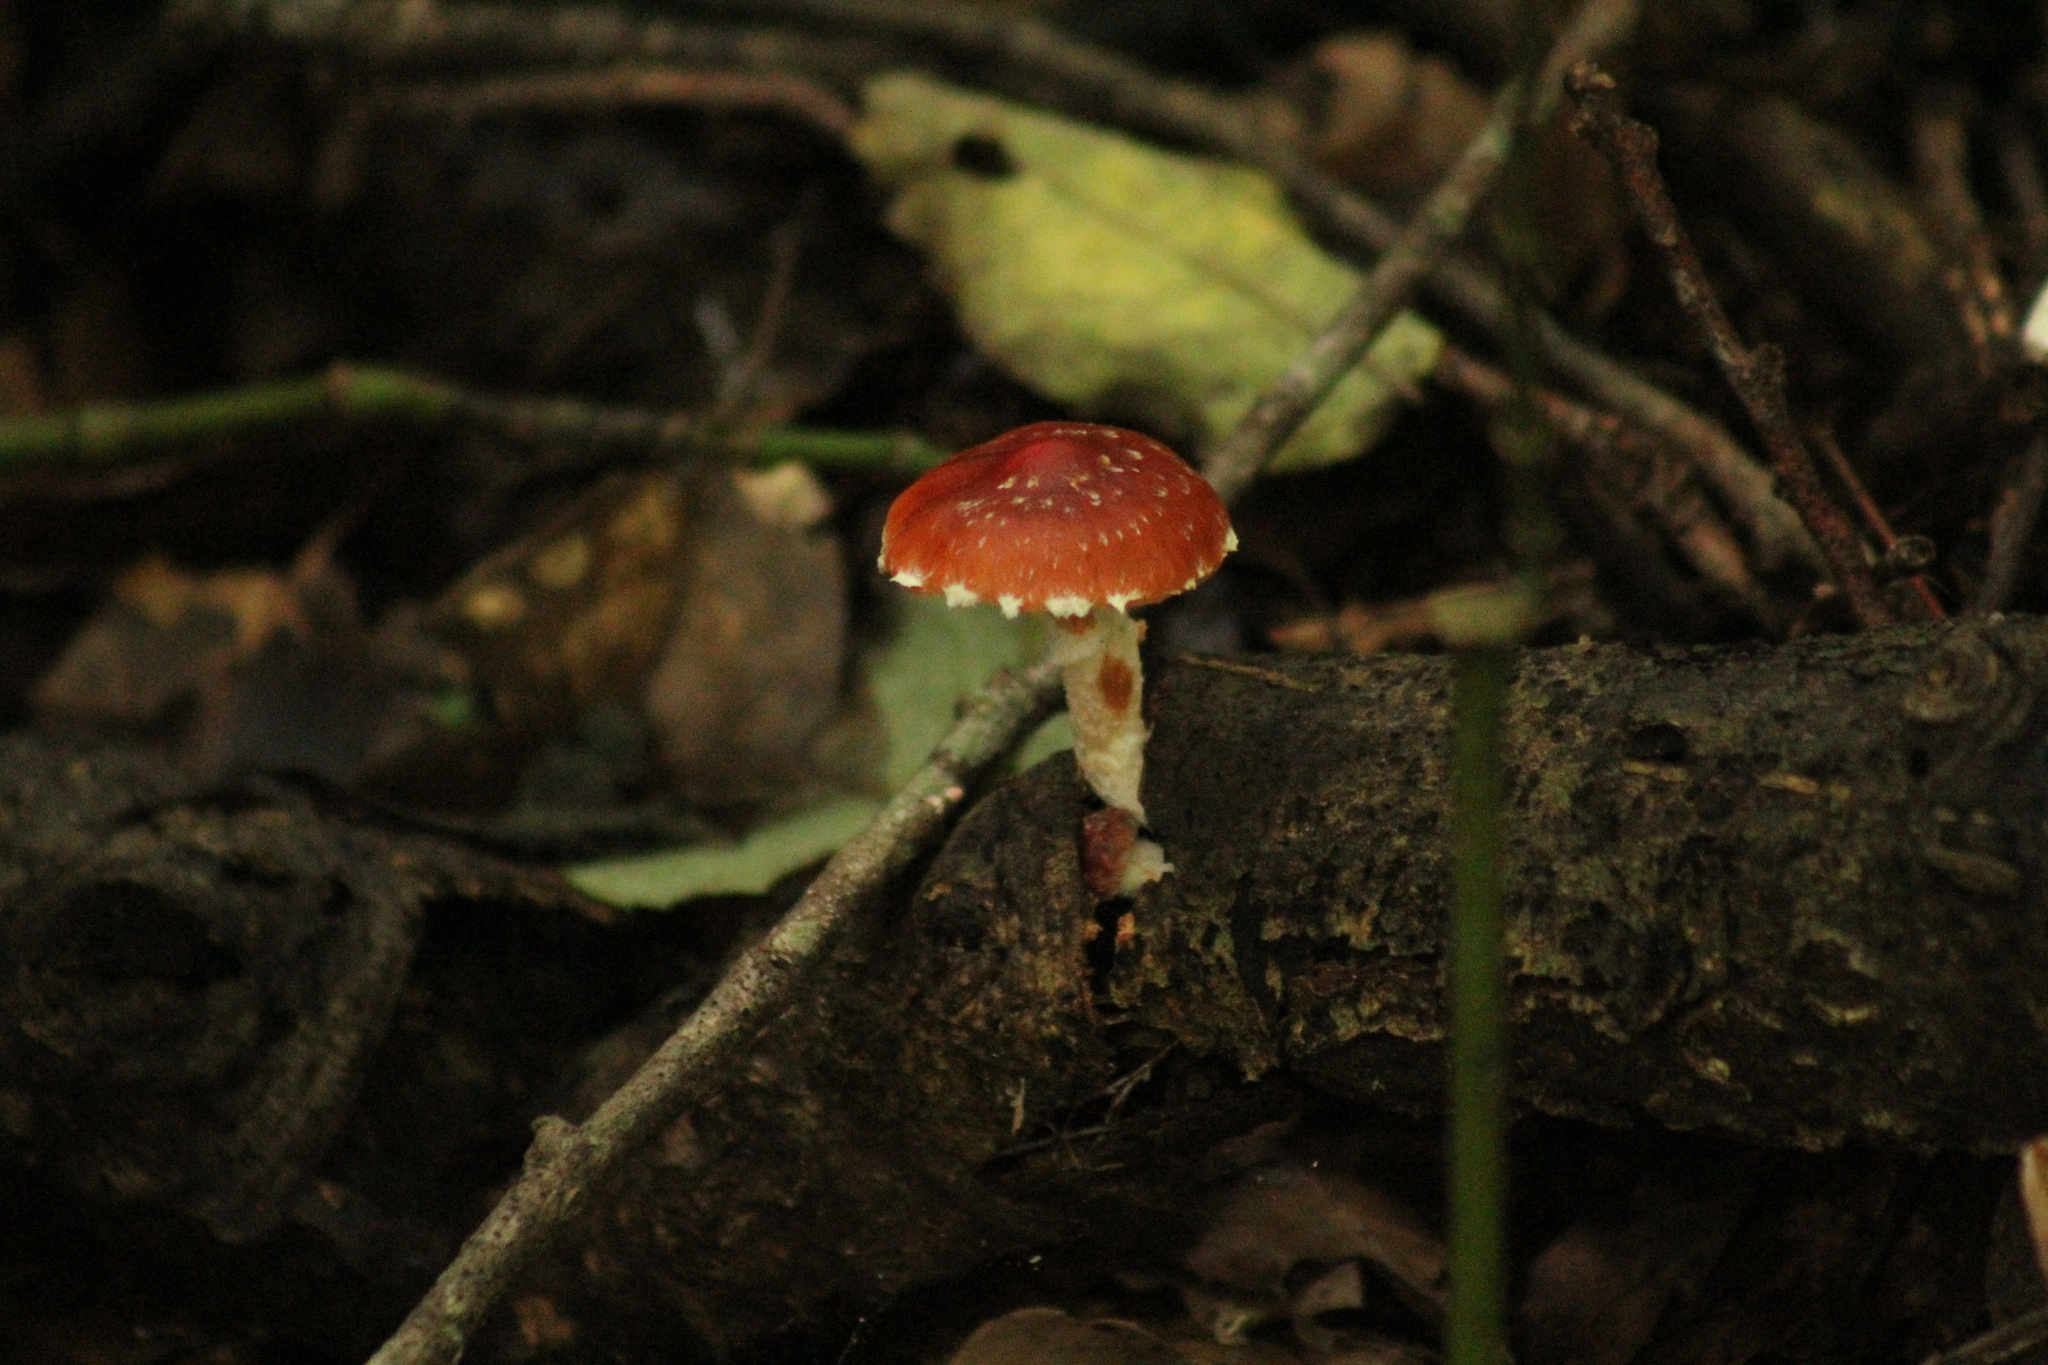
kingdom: Fungi
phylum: Basidiomycota
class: Agaricomycetes
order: Agaricales
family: Strophariaceae
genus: Leratiomyces
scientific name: Leratiomyces ceres
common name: Redlead roundhead
